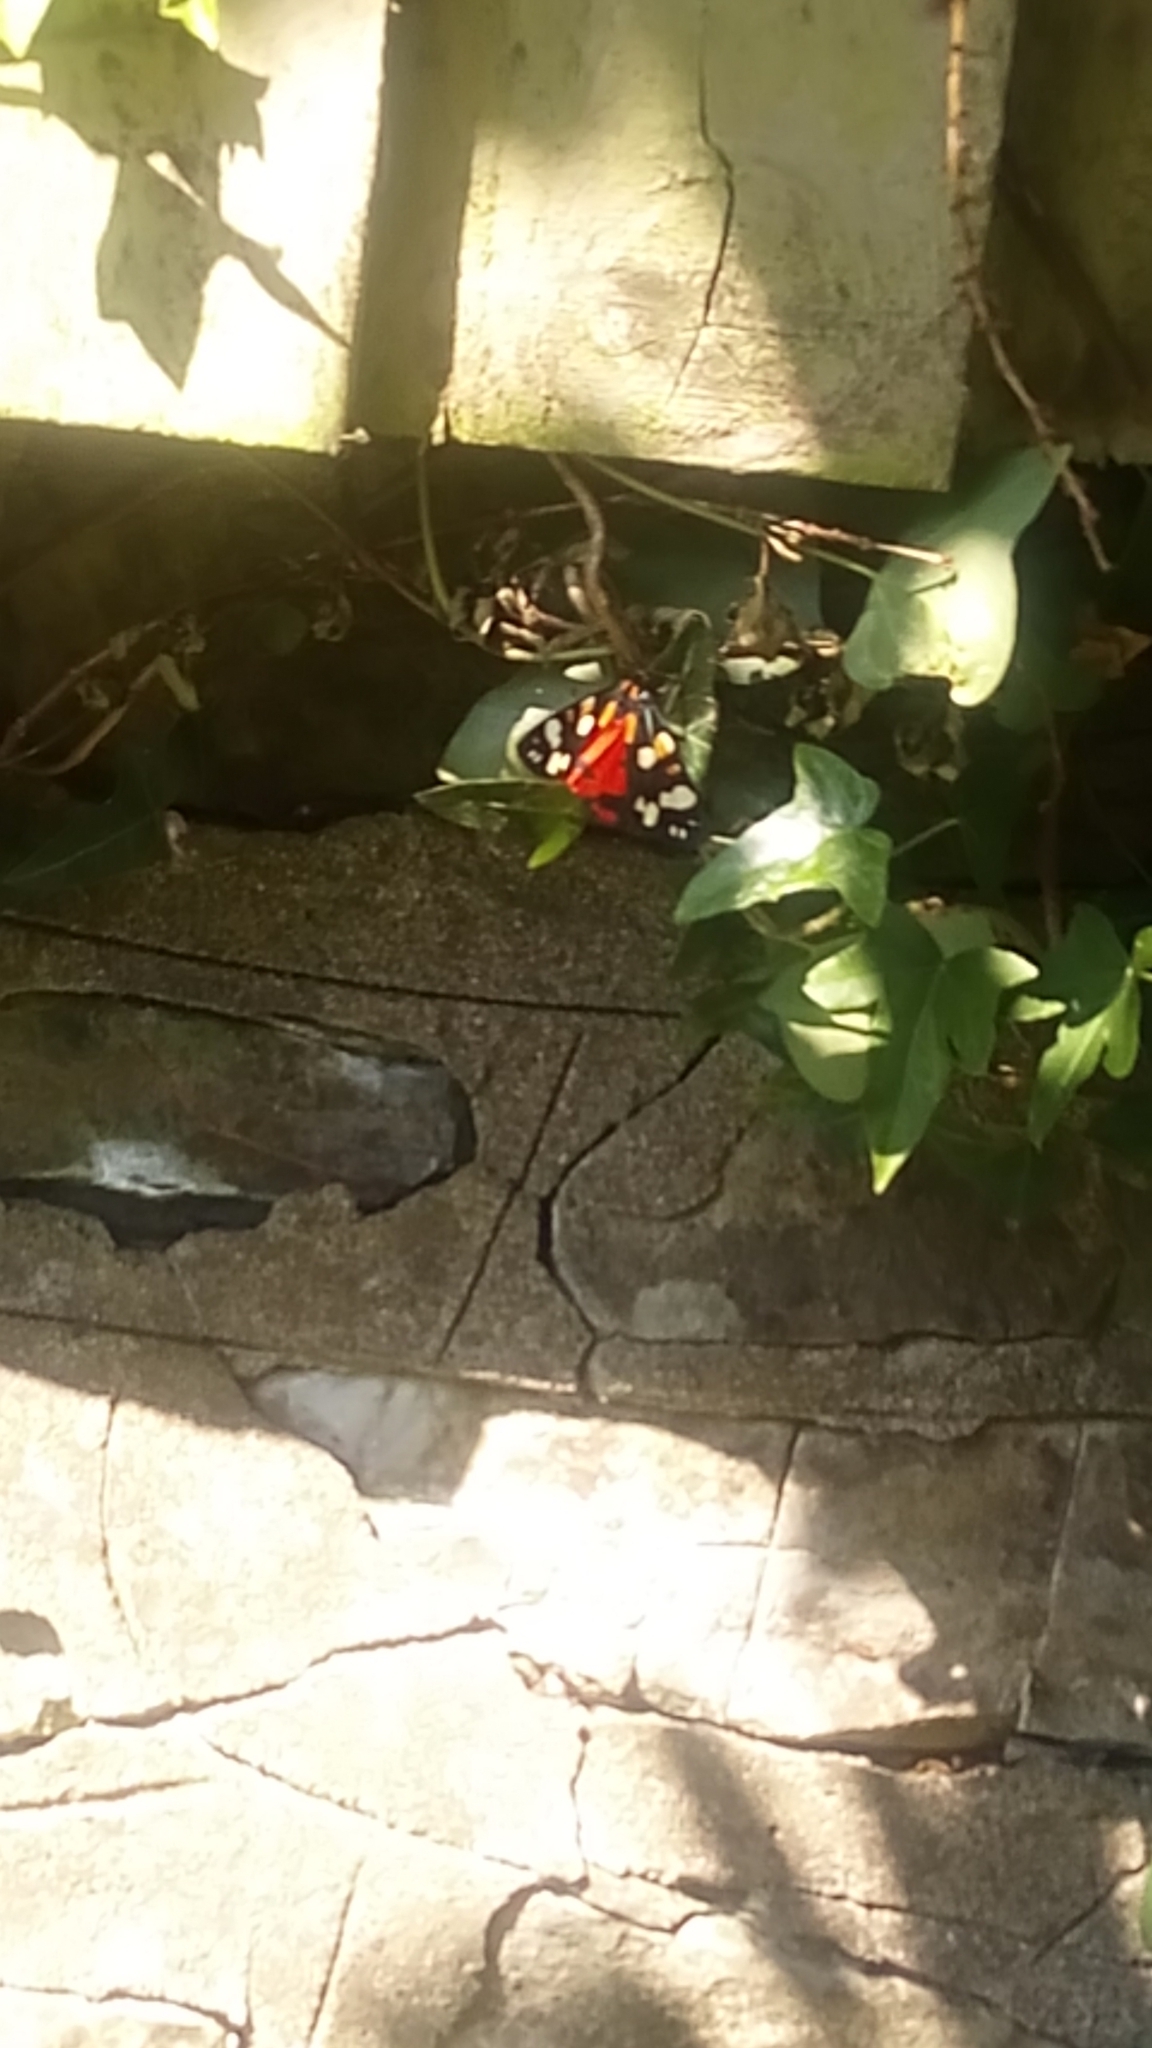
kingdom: Animalia
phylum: Arthropoda
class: Insecta
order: Lepidoptera
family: Erebidae
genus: Callimorpha
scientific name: Callimorpha dominula
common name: Scarlet tiger
